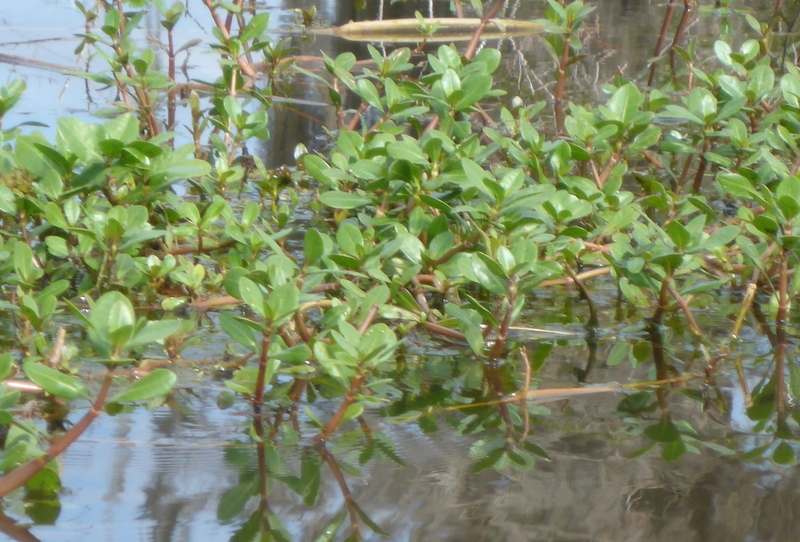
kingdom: Plantae
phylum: Tracheophyta
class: Magnoliopsida
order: Caryophyllales
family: Amaranthaceae
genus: Alternanthera
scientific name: Alternanthera philoxeroides
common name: Alligatorweed
